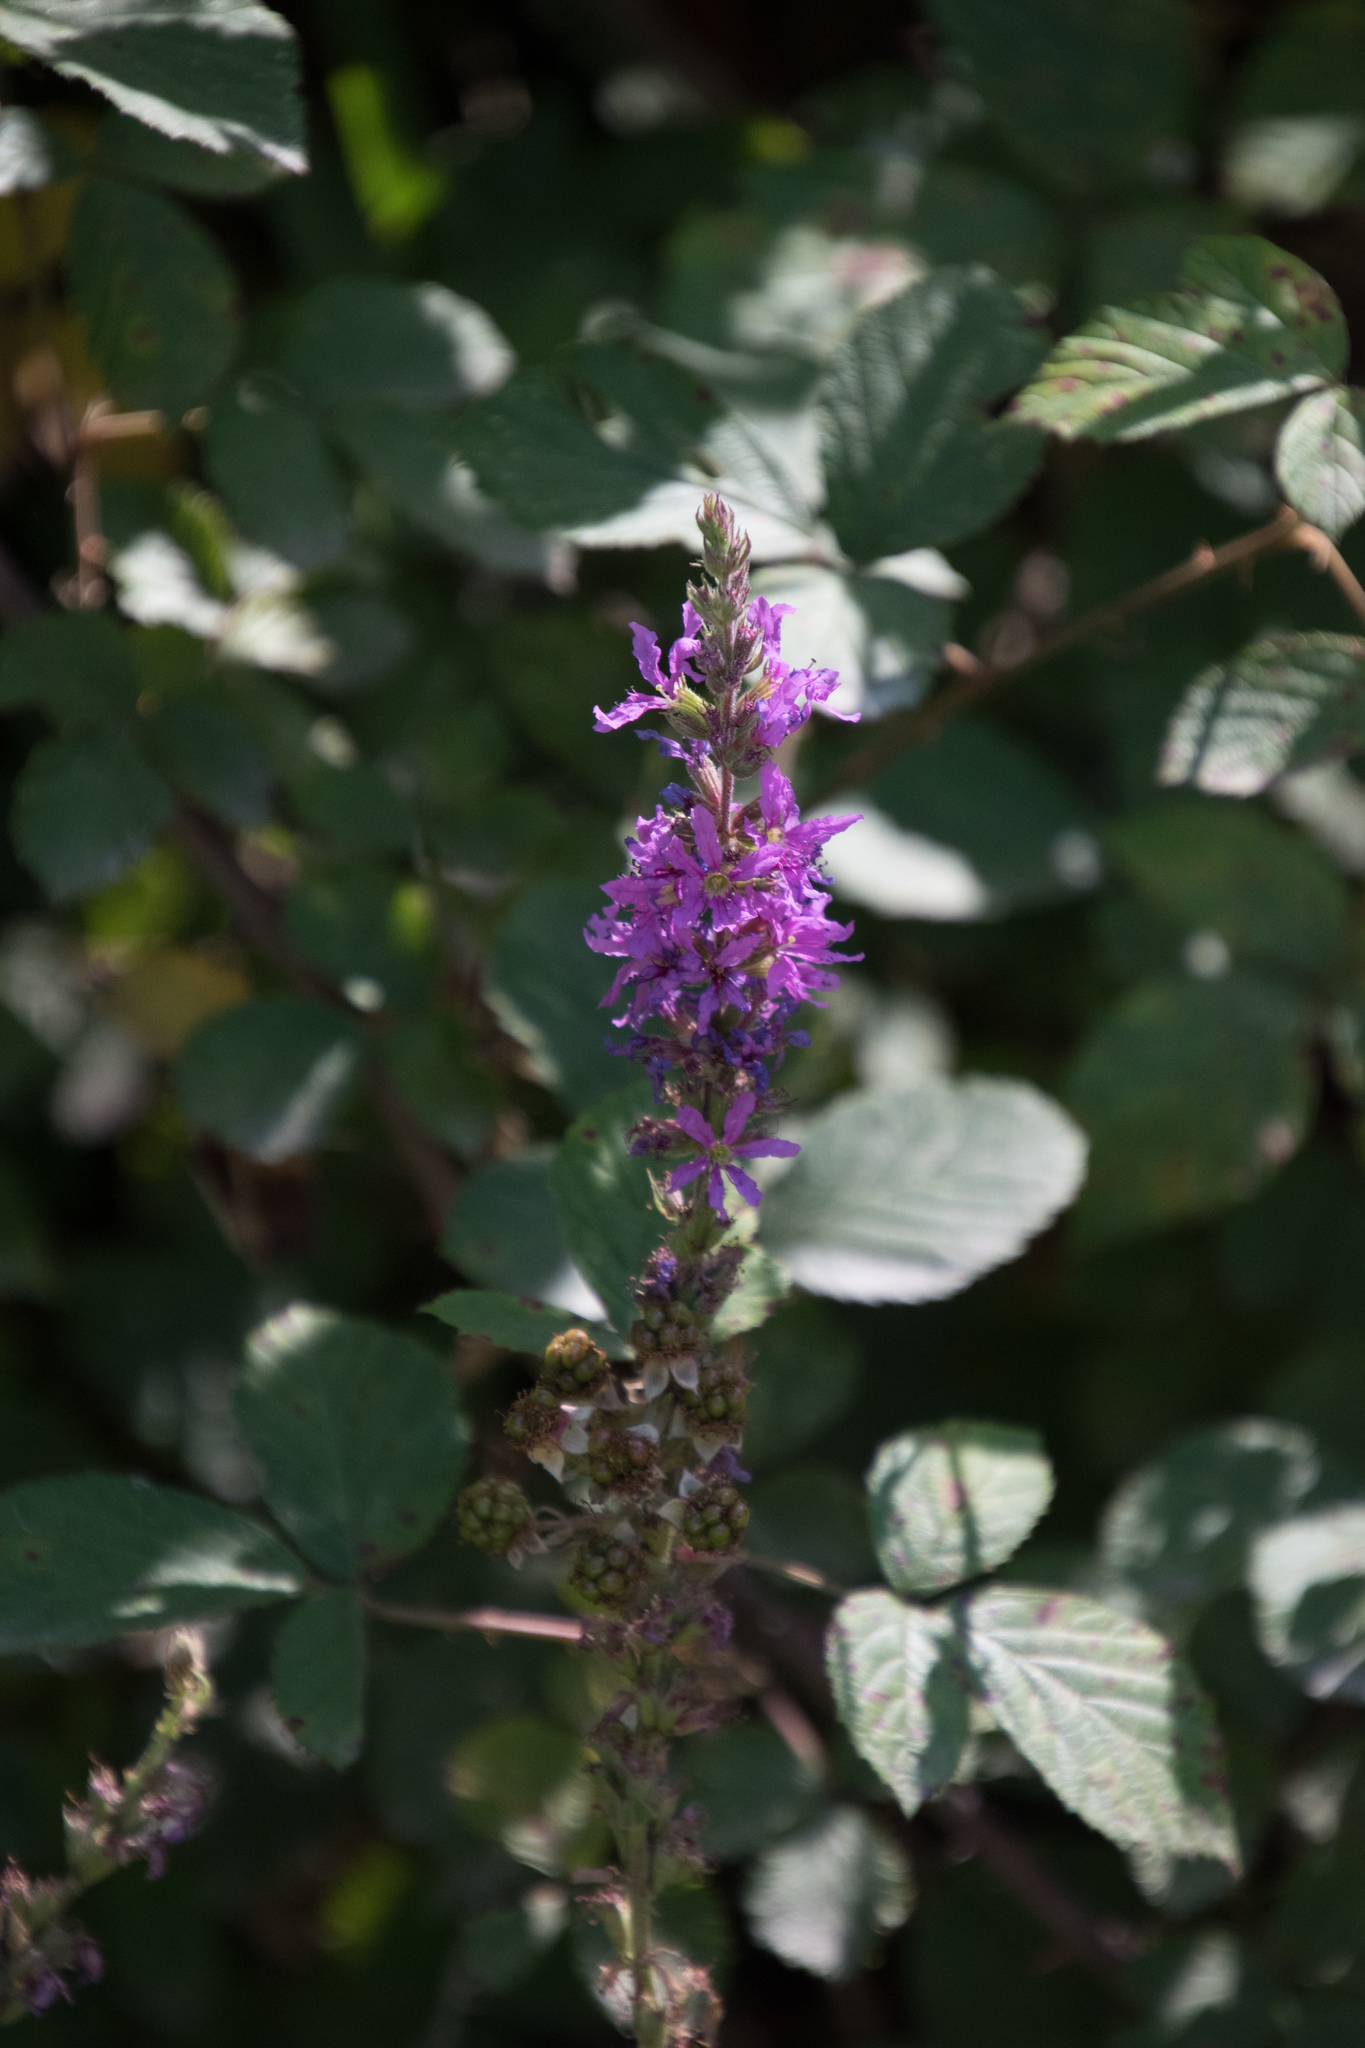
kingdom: Plantae
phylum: Tracheophyta
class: Magnoliopsida
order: Myrtales
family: Lythraceae
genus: Lythrum
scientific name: Lythrum salicaria
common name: Purple loosestrife
